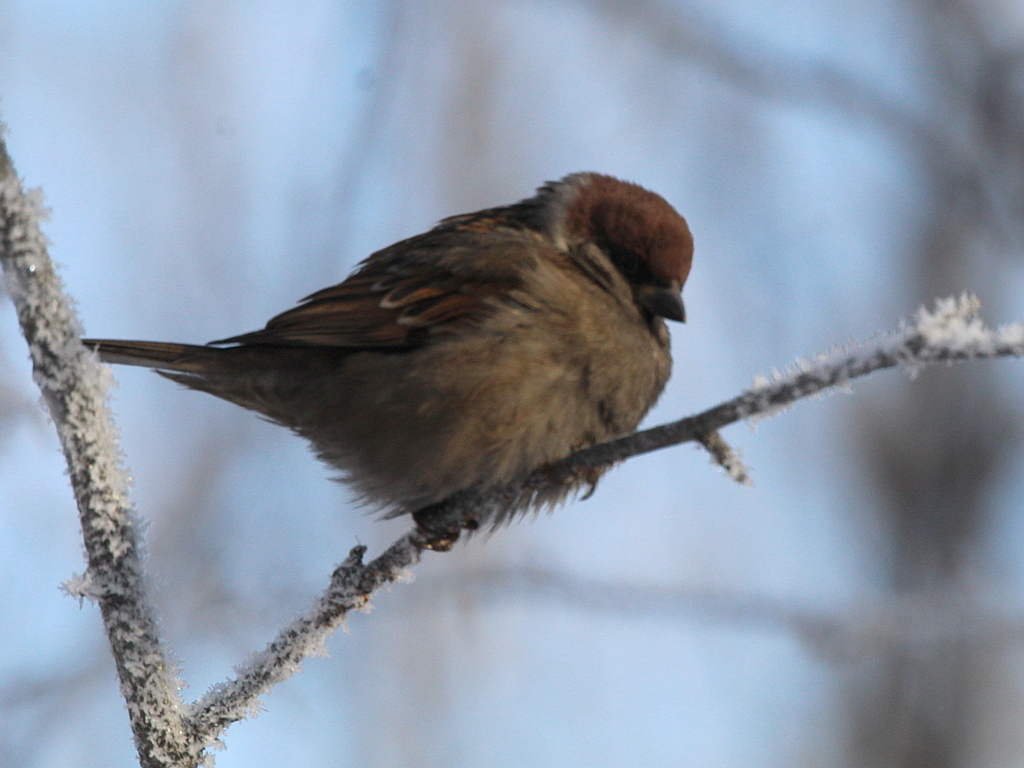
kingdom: Animalia
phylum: Chordata
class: Aves
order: Passeriformes
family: Passeridae
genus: Passer
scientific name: Passer montanus
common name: Eurasian tree sparrow
